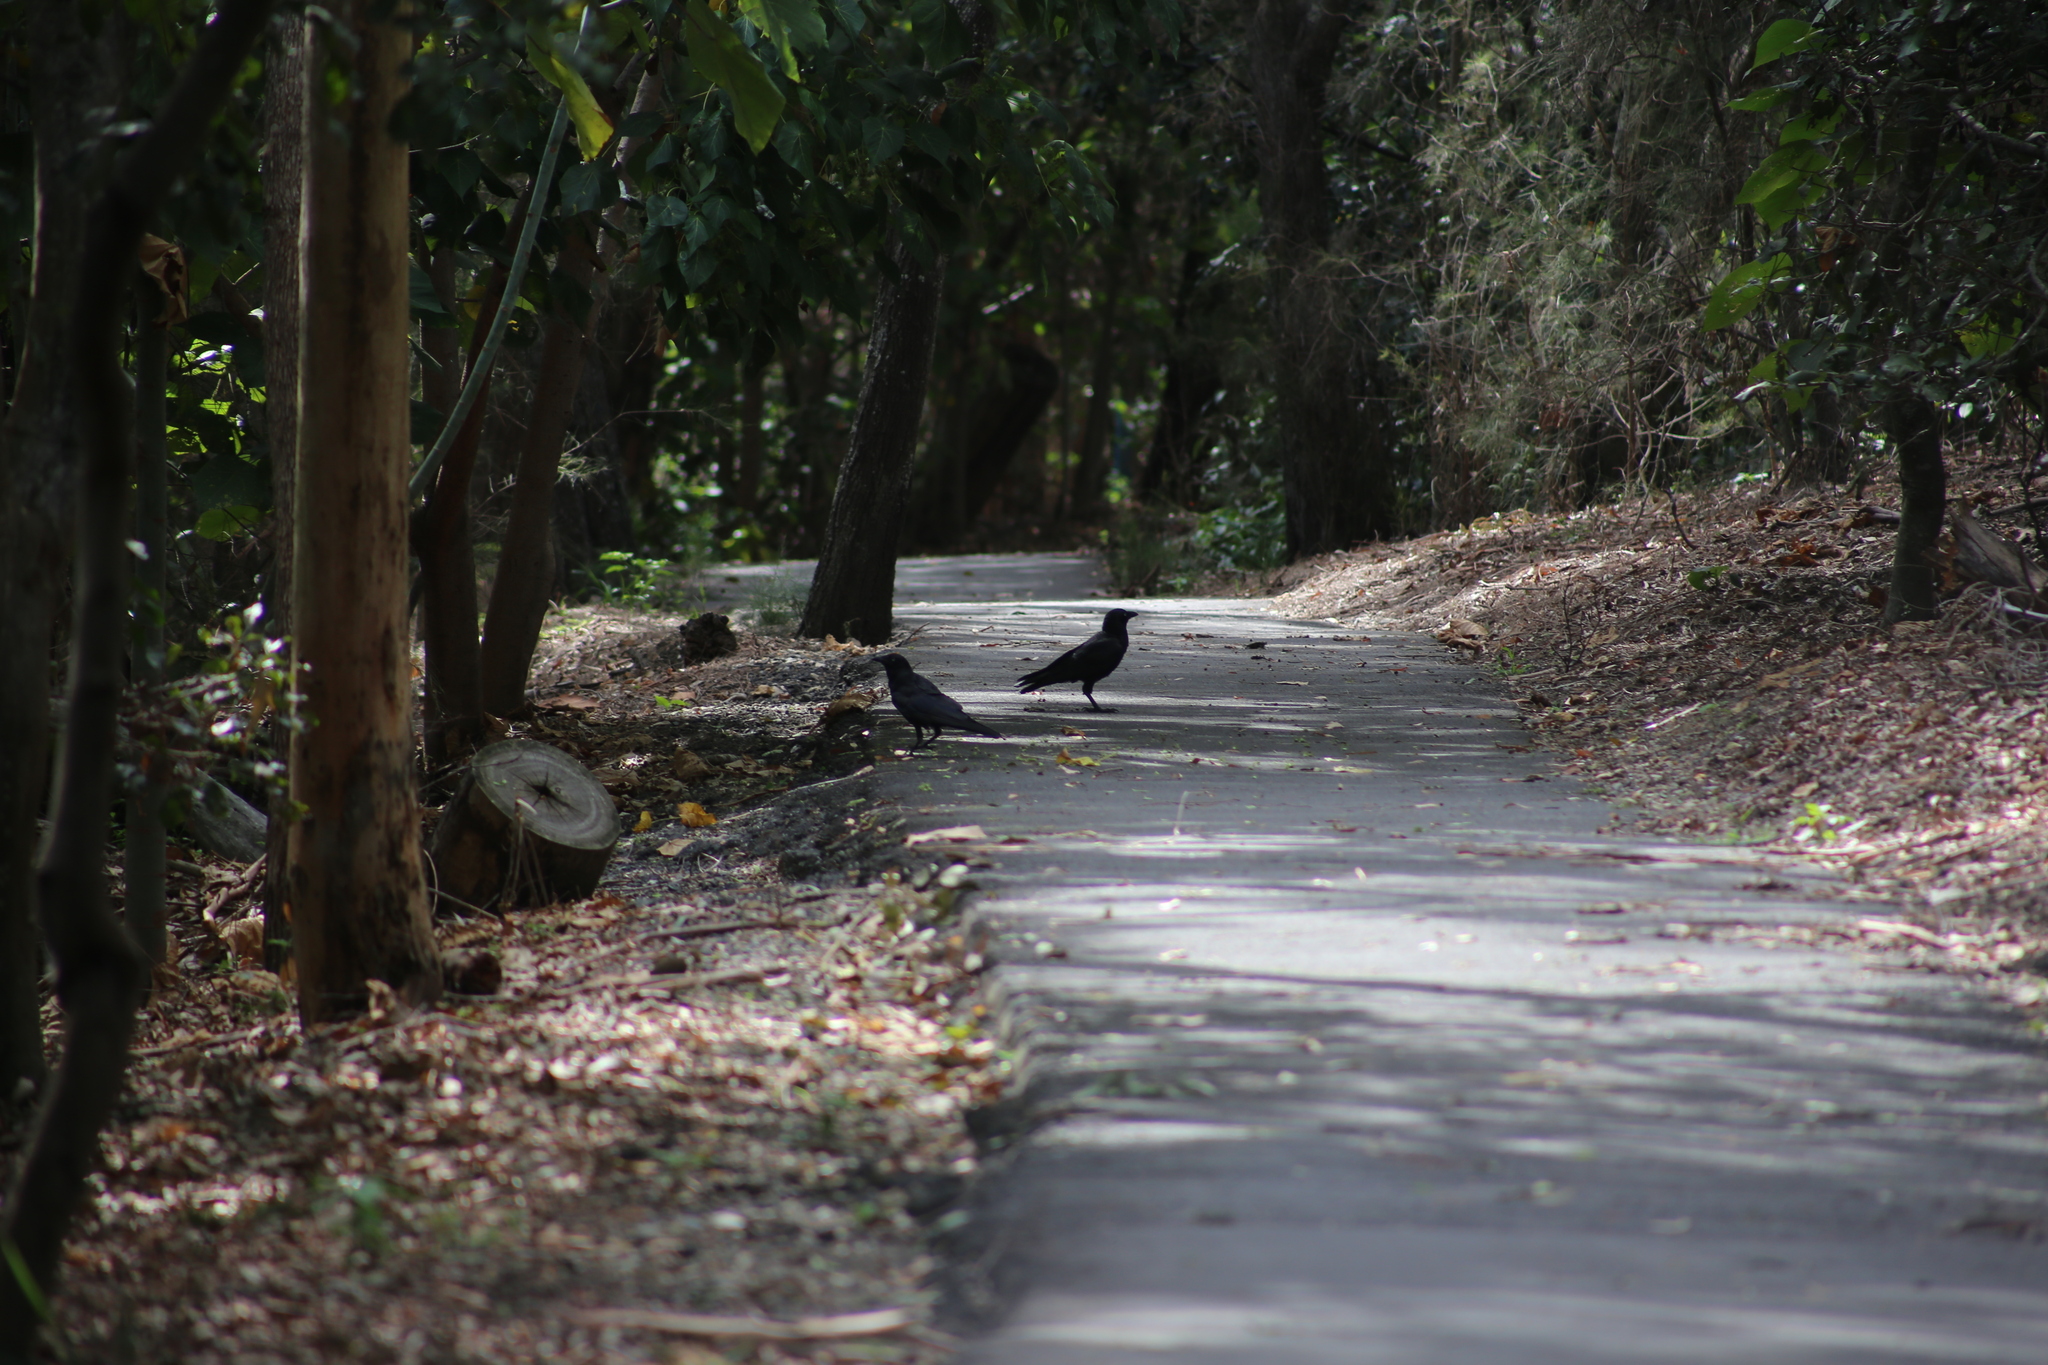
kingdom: Animalia
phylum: Chordata
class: Aves
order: Passeriformes
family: Corvidae
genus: Corvus
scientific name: Corvus orru
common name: Torresian crow
